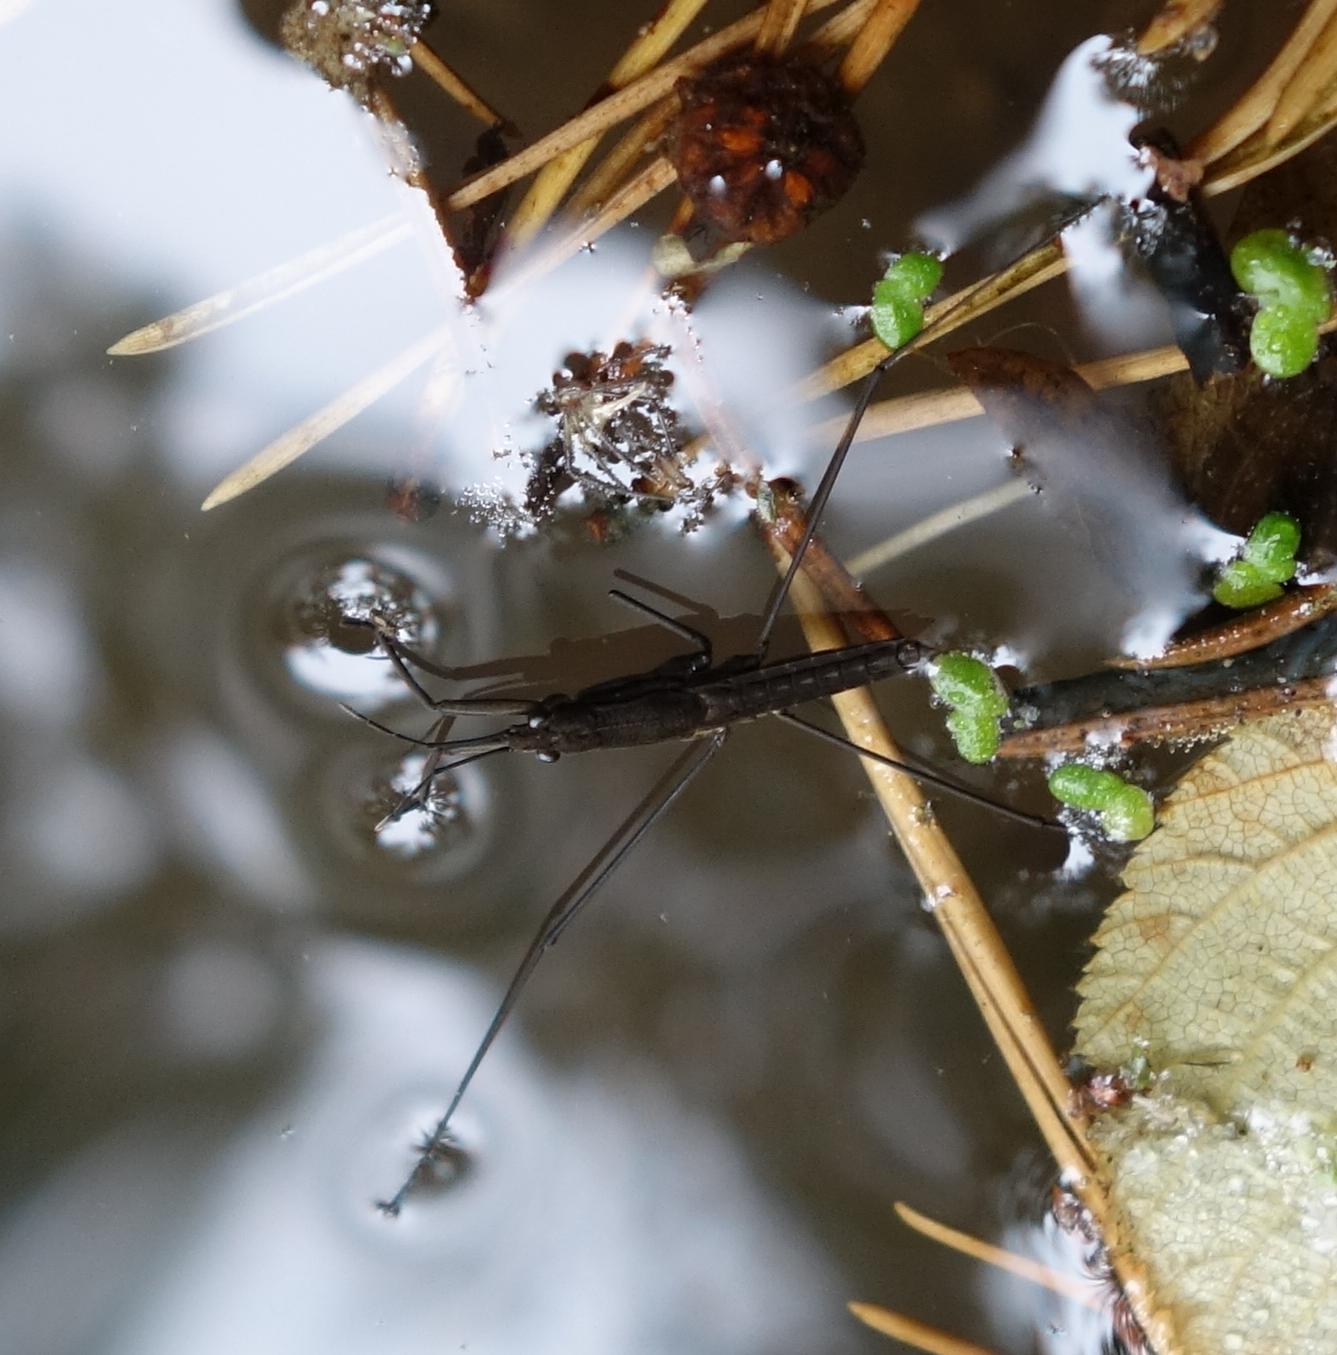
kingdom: Animalia
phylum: Arthropoda
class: Insecta
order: Hemiptera
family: Gerridae
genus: Aquarius
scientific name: Aquarius najas
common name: River skater
